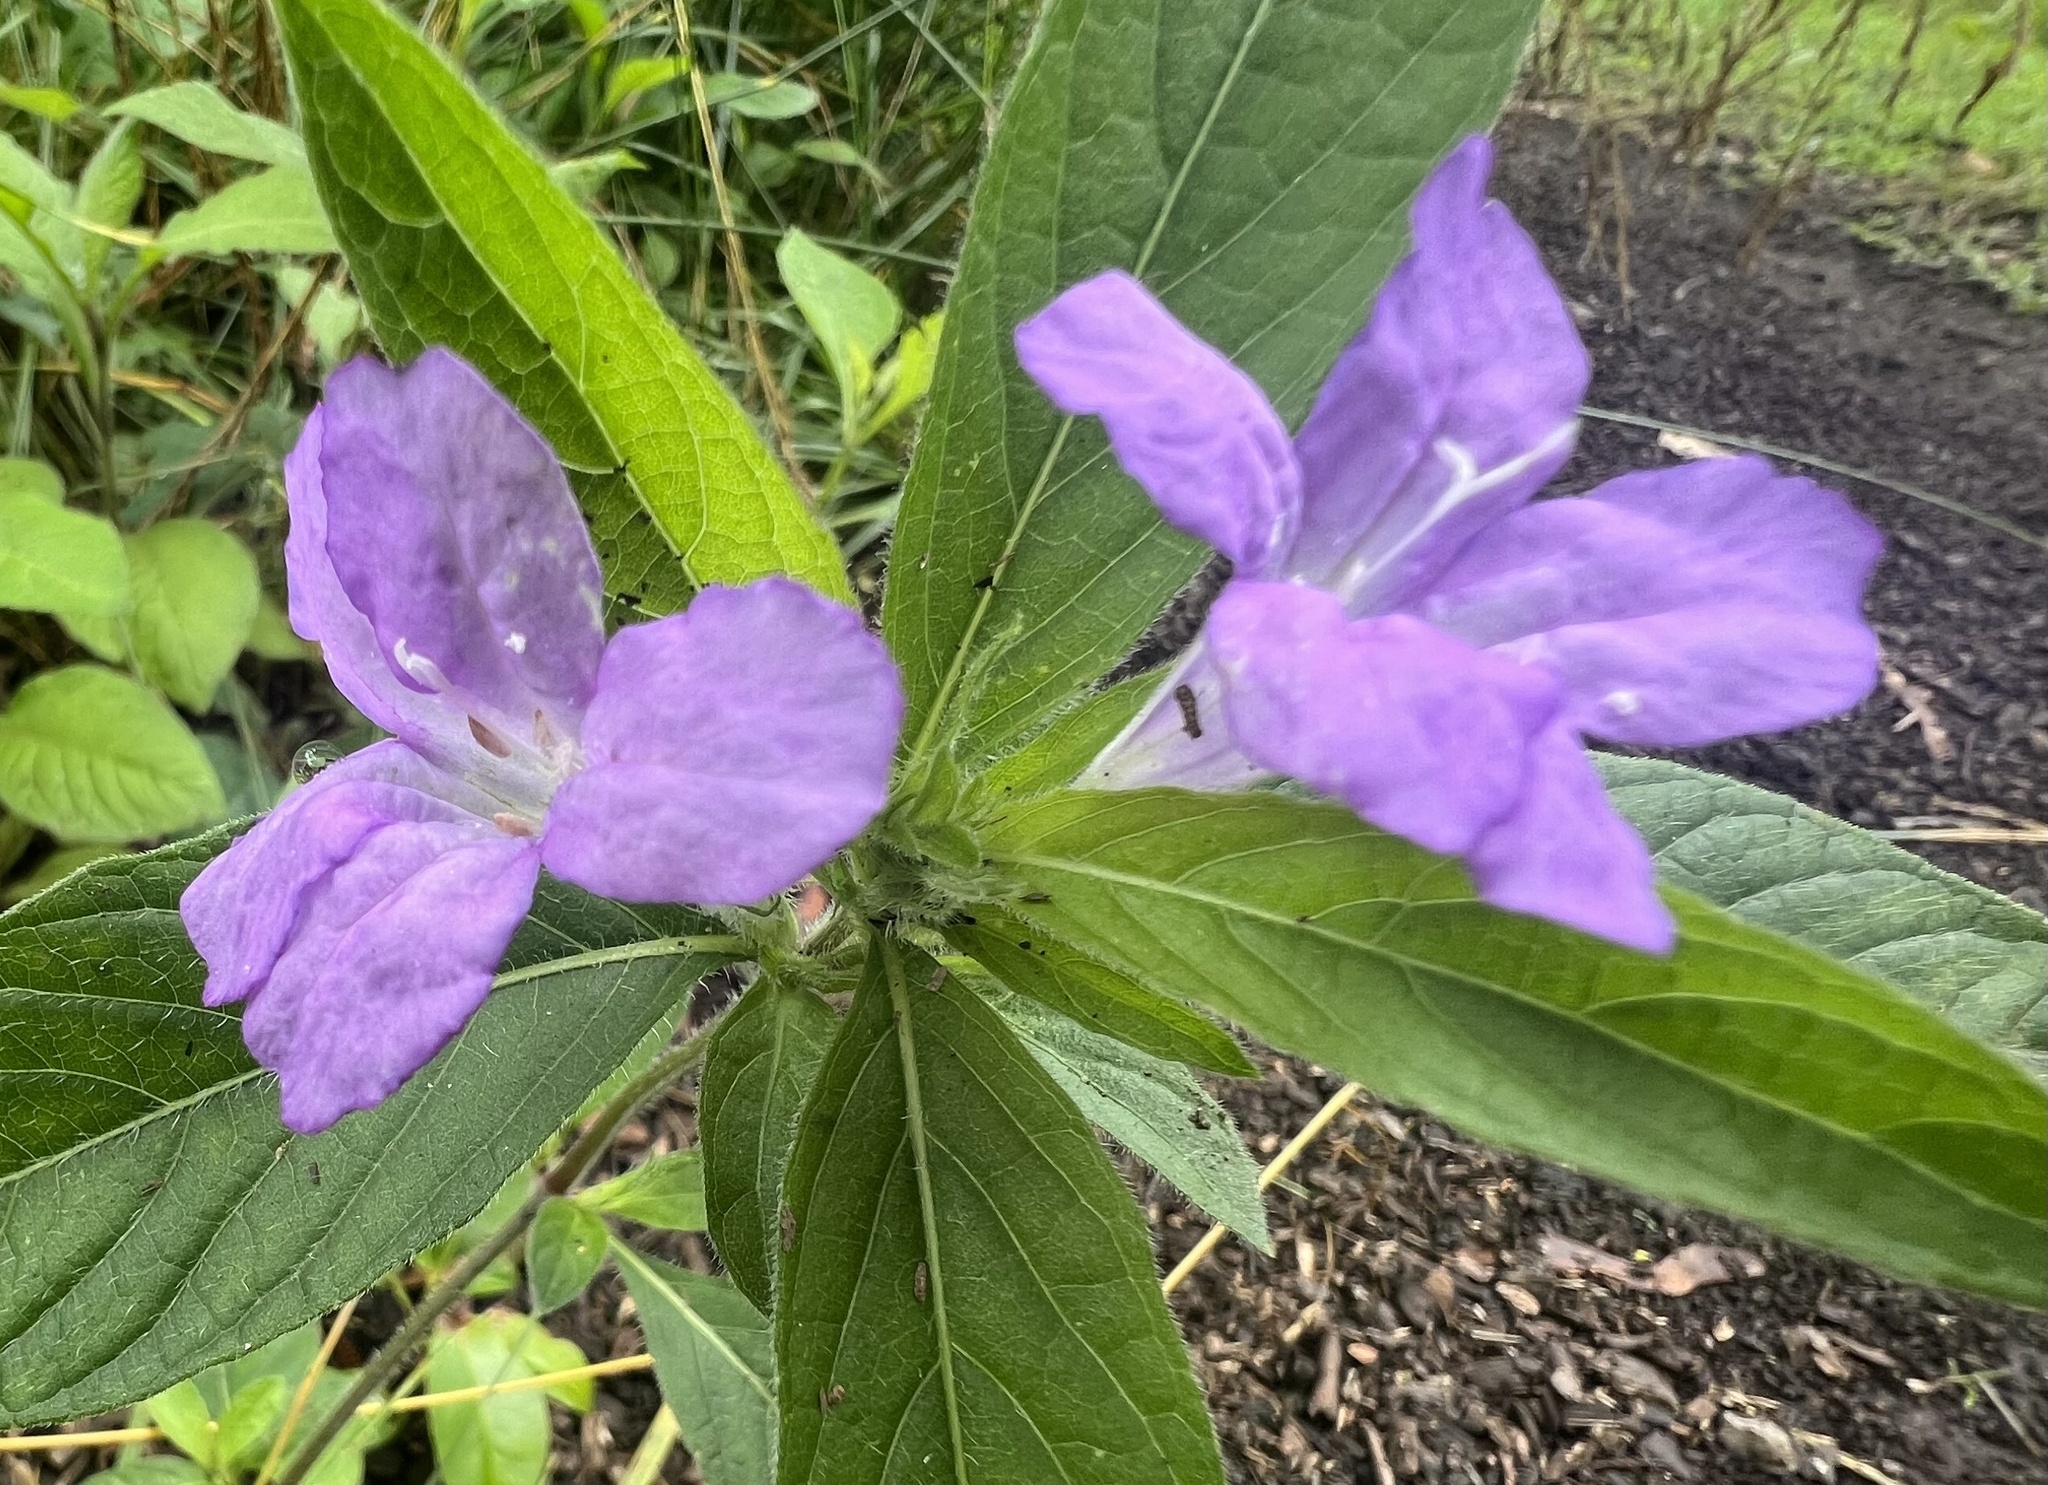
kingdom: Plantae
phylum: Tracheophyta
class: Magnoliopsida
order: Lamiales
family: Acanthaceae
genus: Ruellia
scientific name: Ruellia caroliniensis
